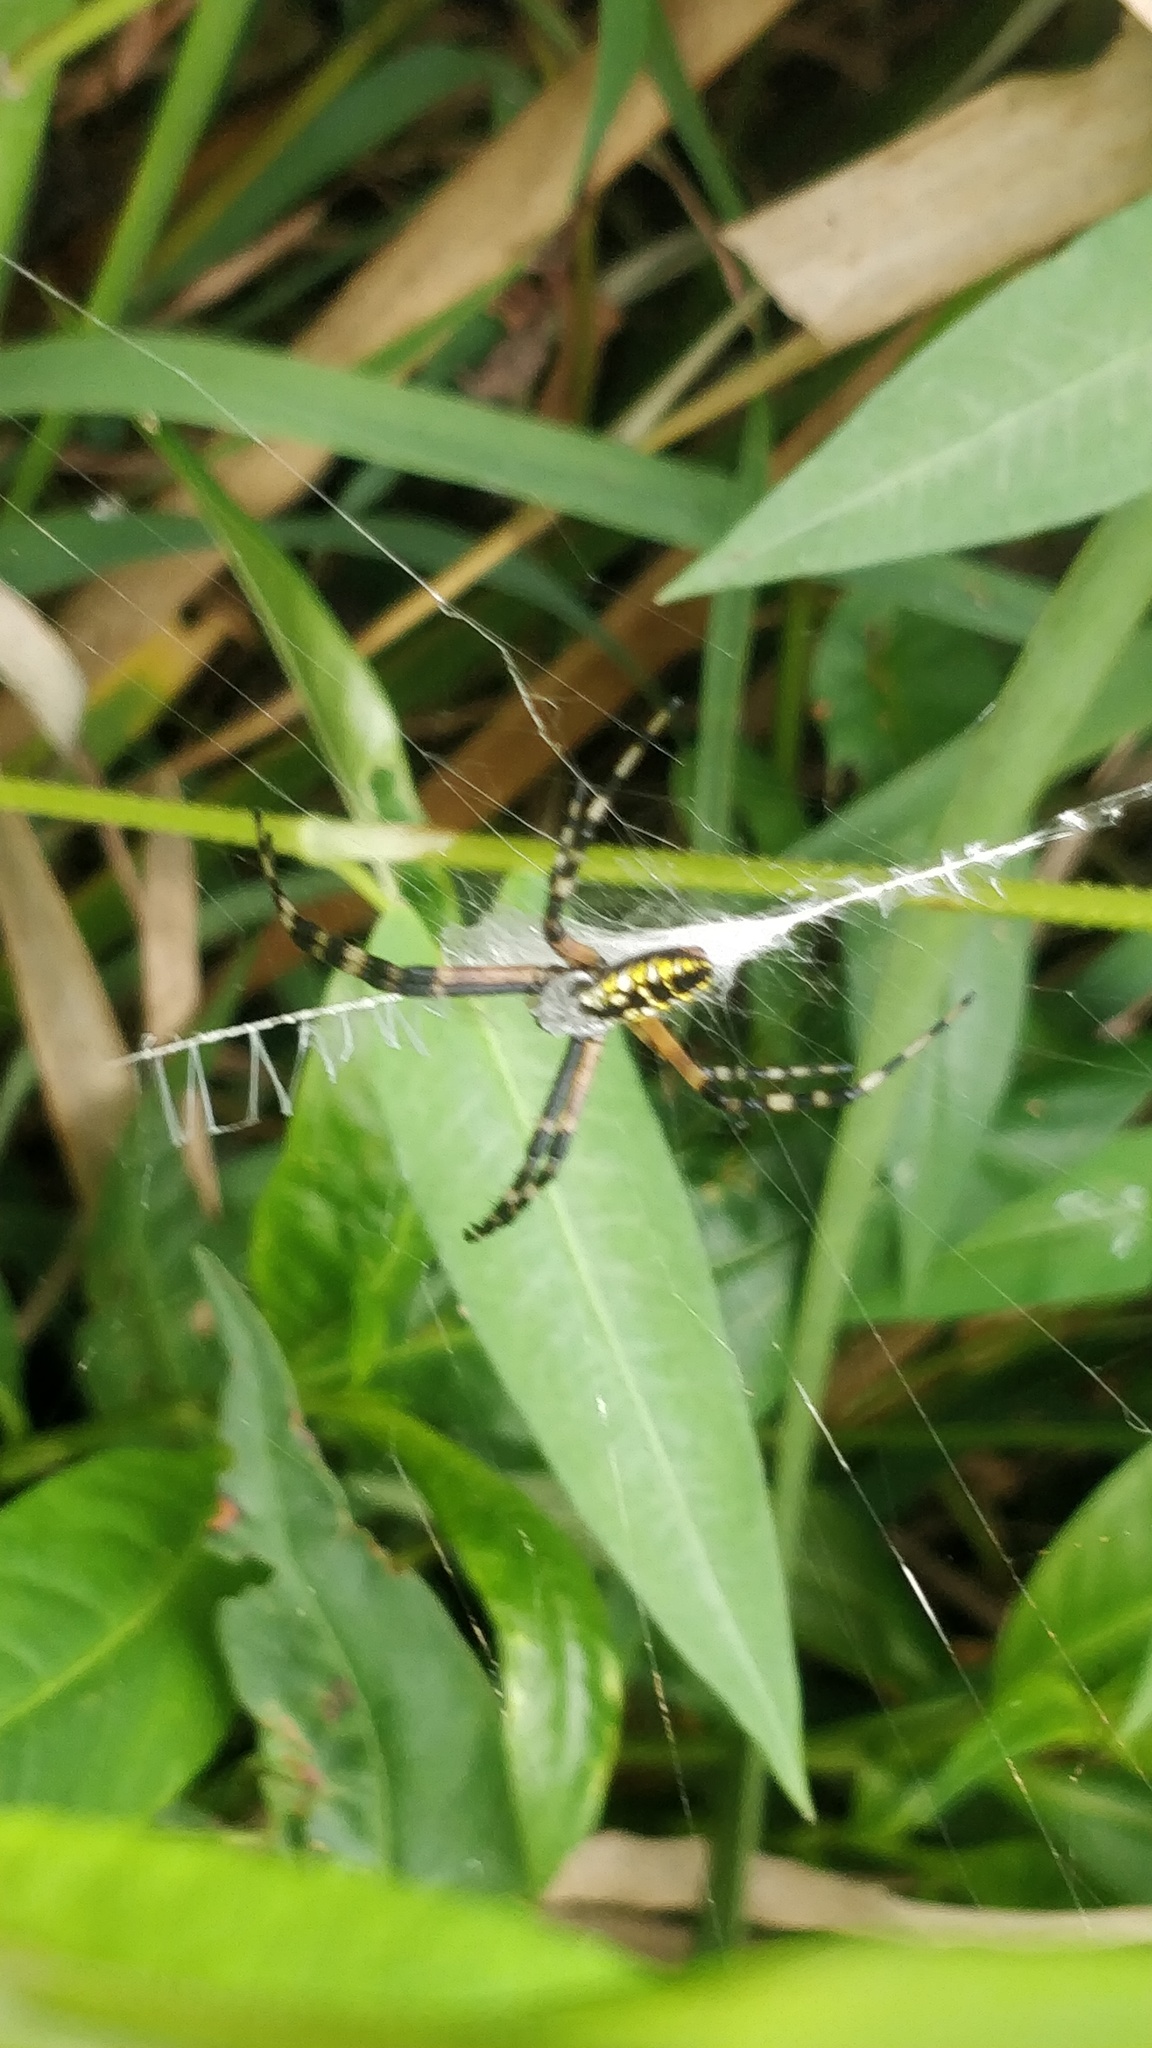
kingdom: Animalia
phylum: Arthropoda
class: Arachnida
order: Araneae
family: Araneidae
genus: Argiope
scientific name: Argiope aurantia
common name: Orb weavers
